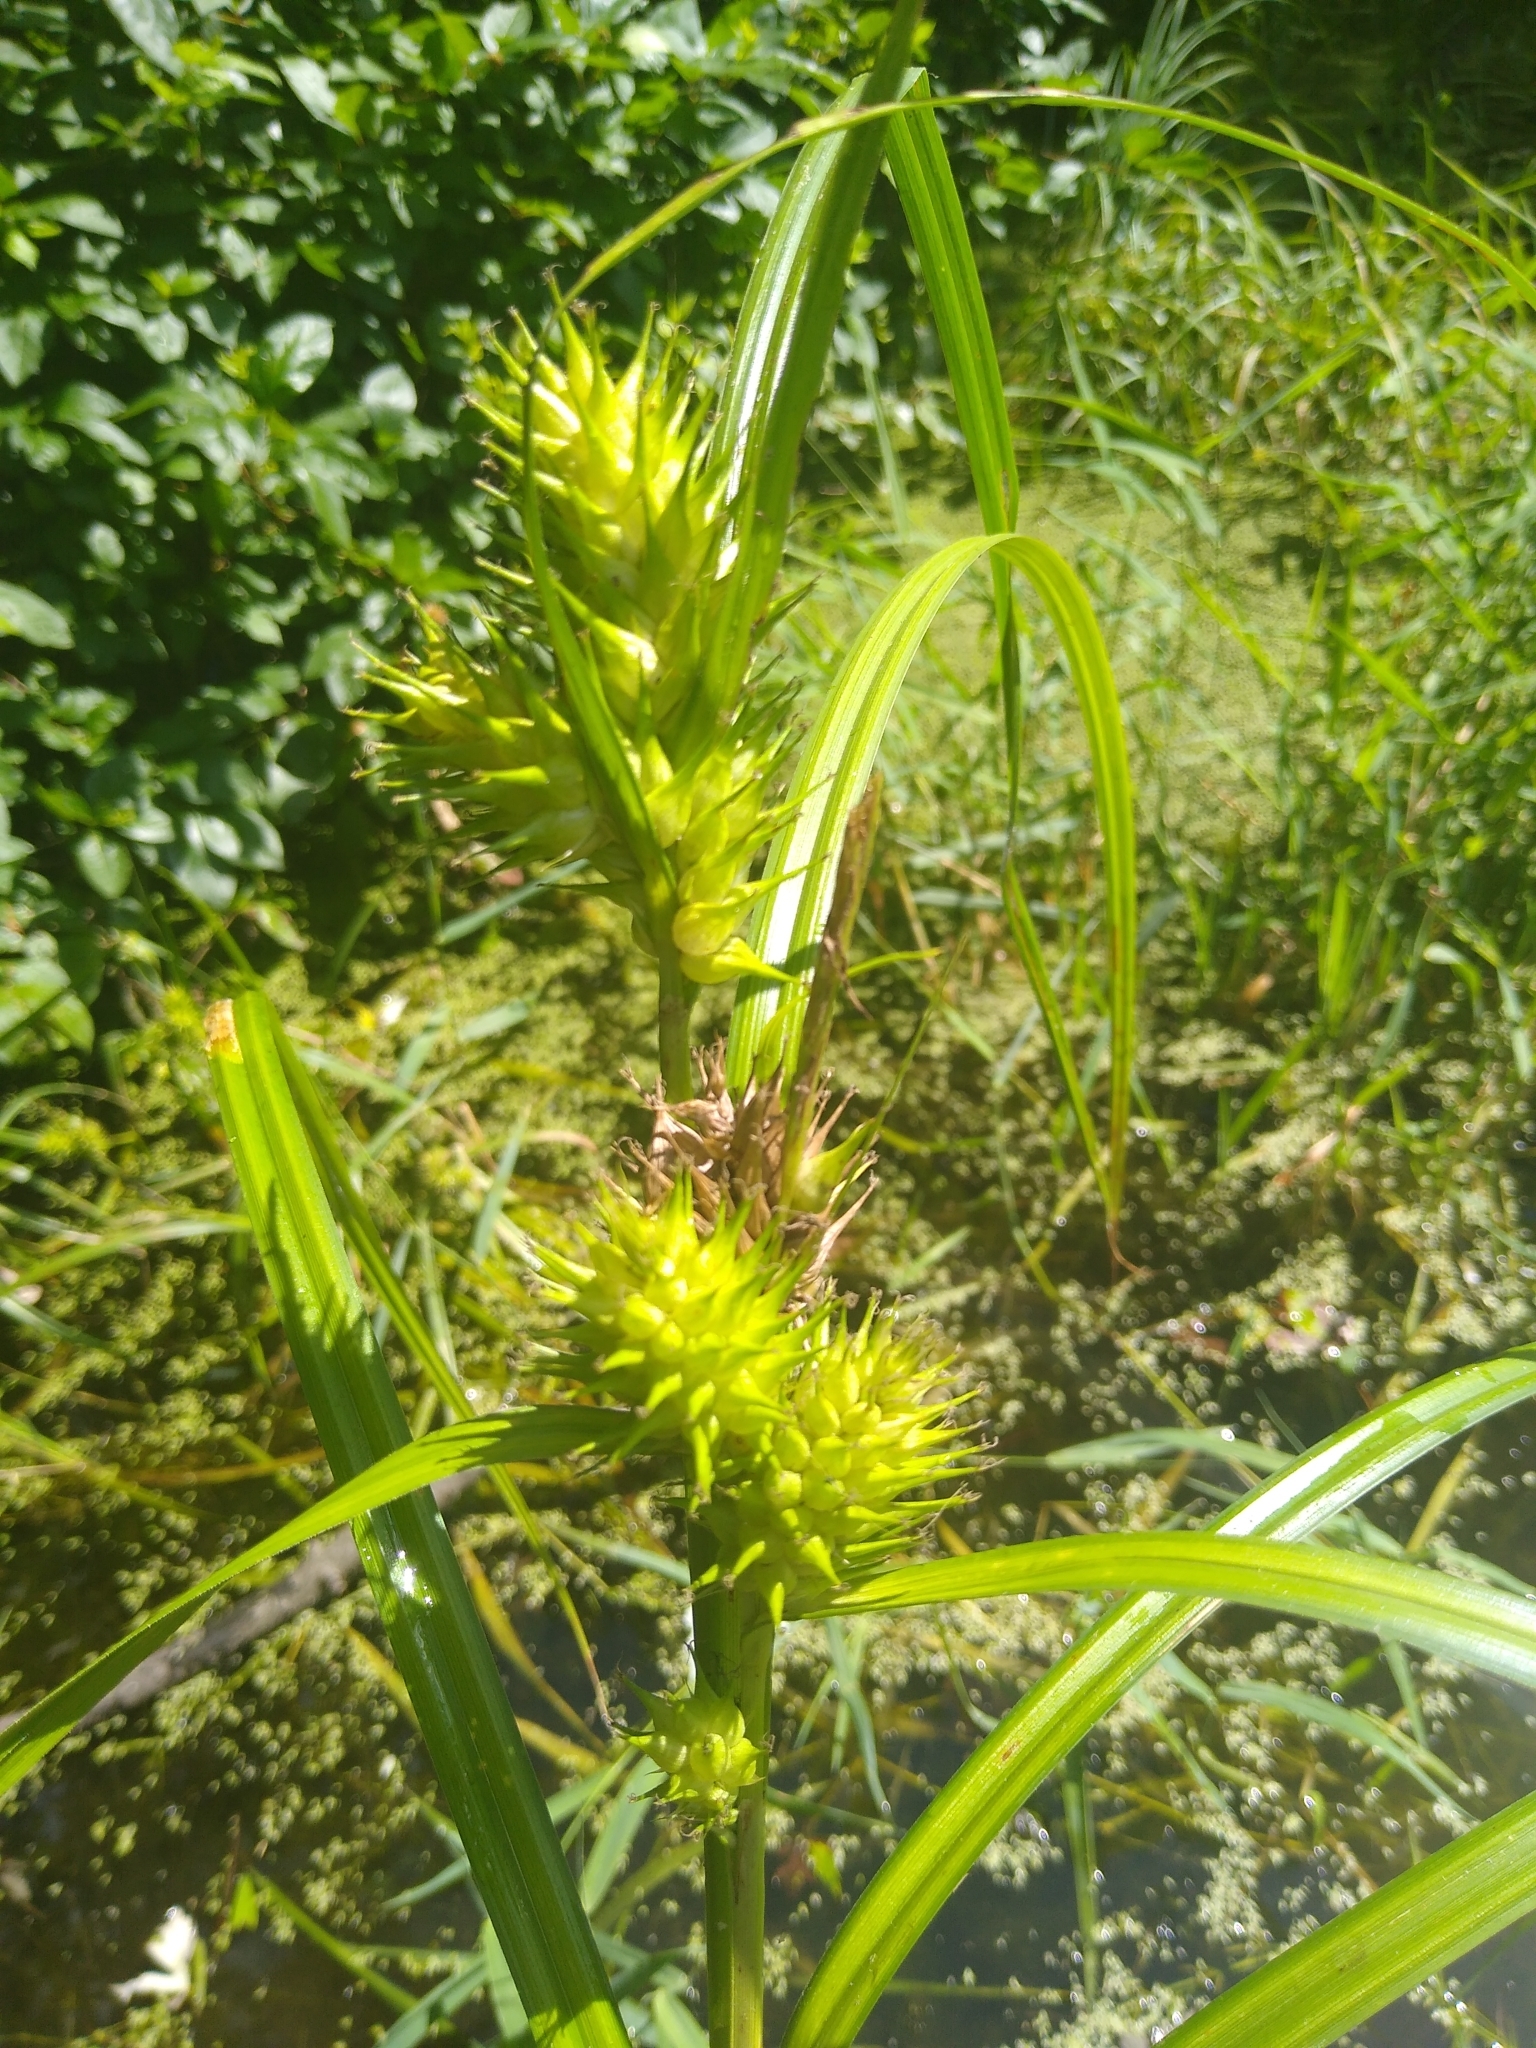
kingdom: Plantae
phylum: Tracheophyta
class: Liliopsida
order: Poales
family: Cyperaceae
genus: Carex
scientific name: Carex lupulina
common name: Hop sedge
